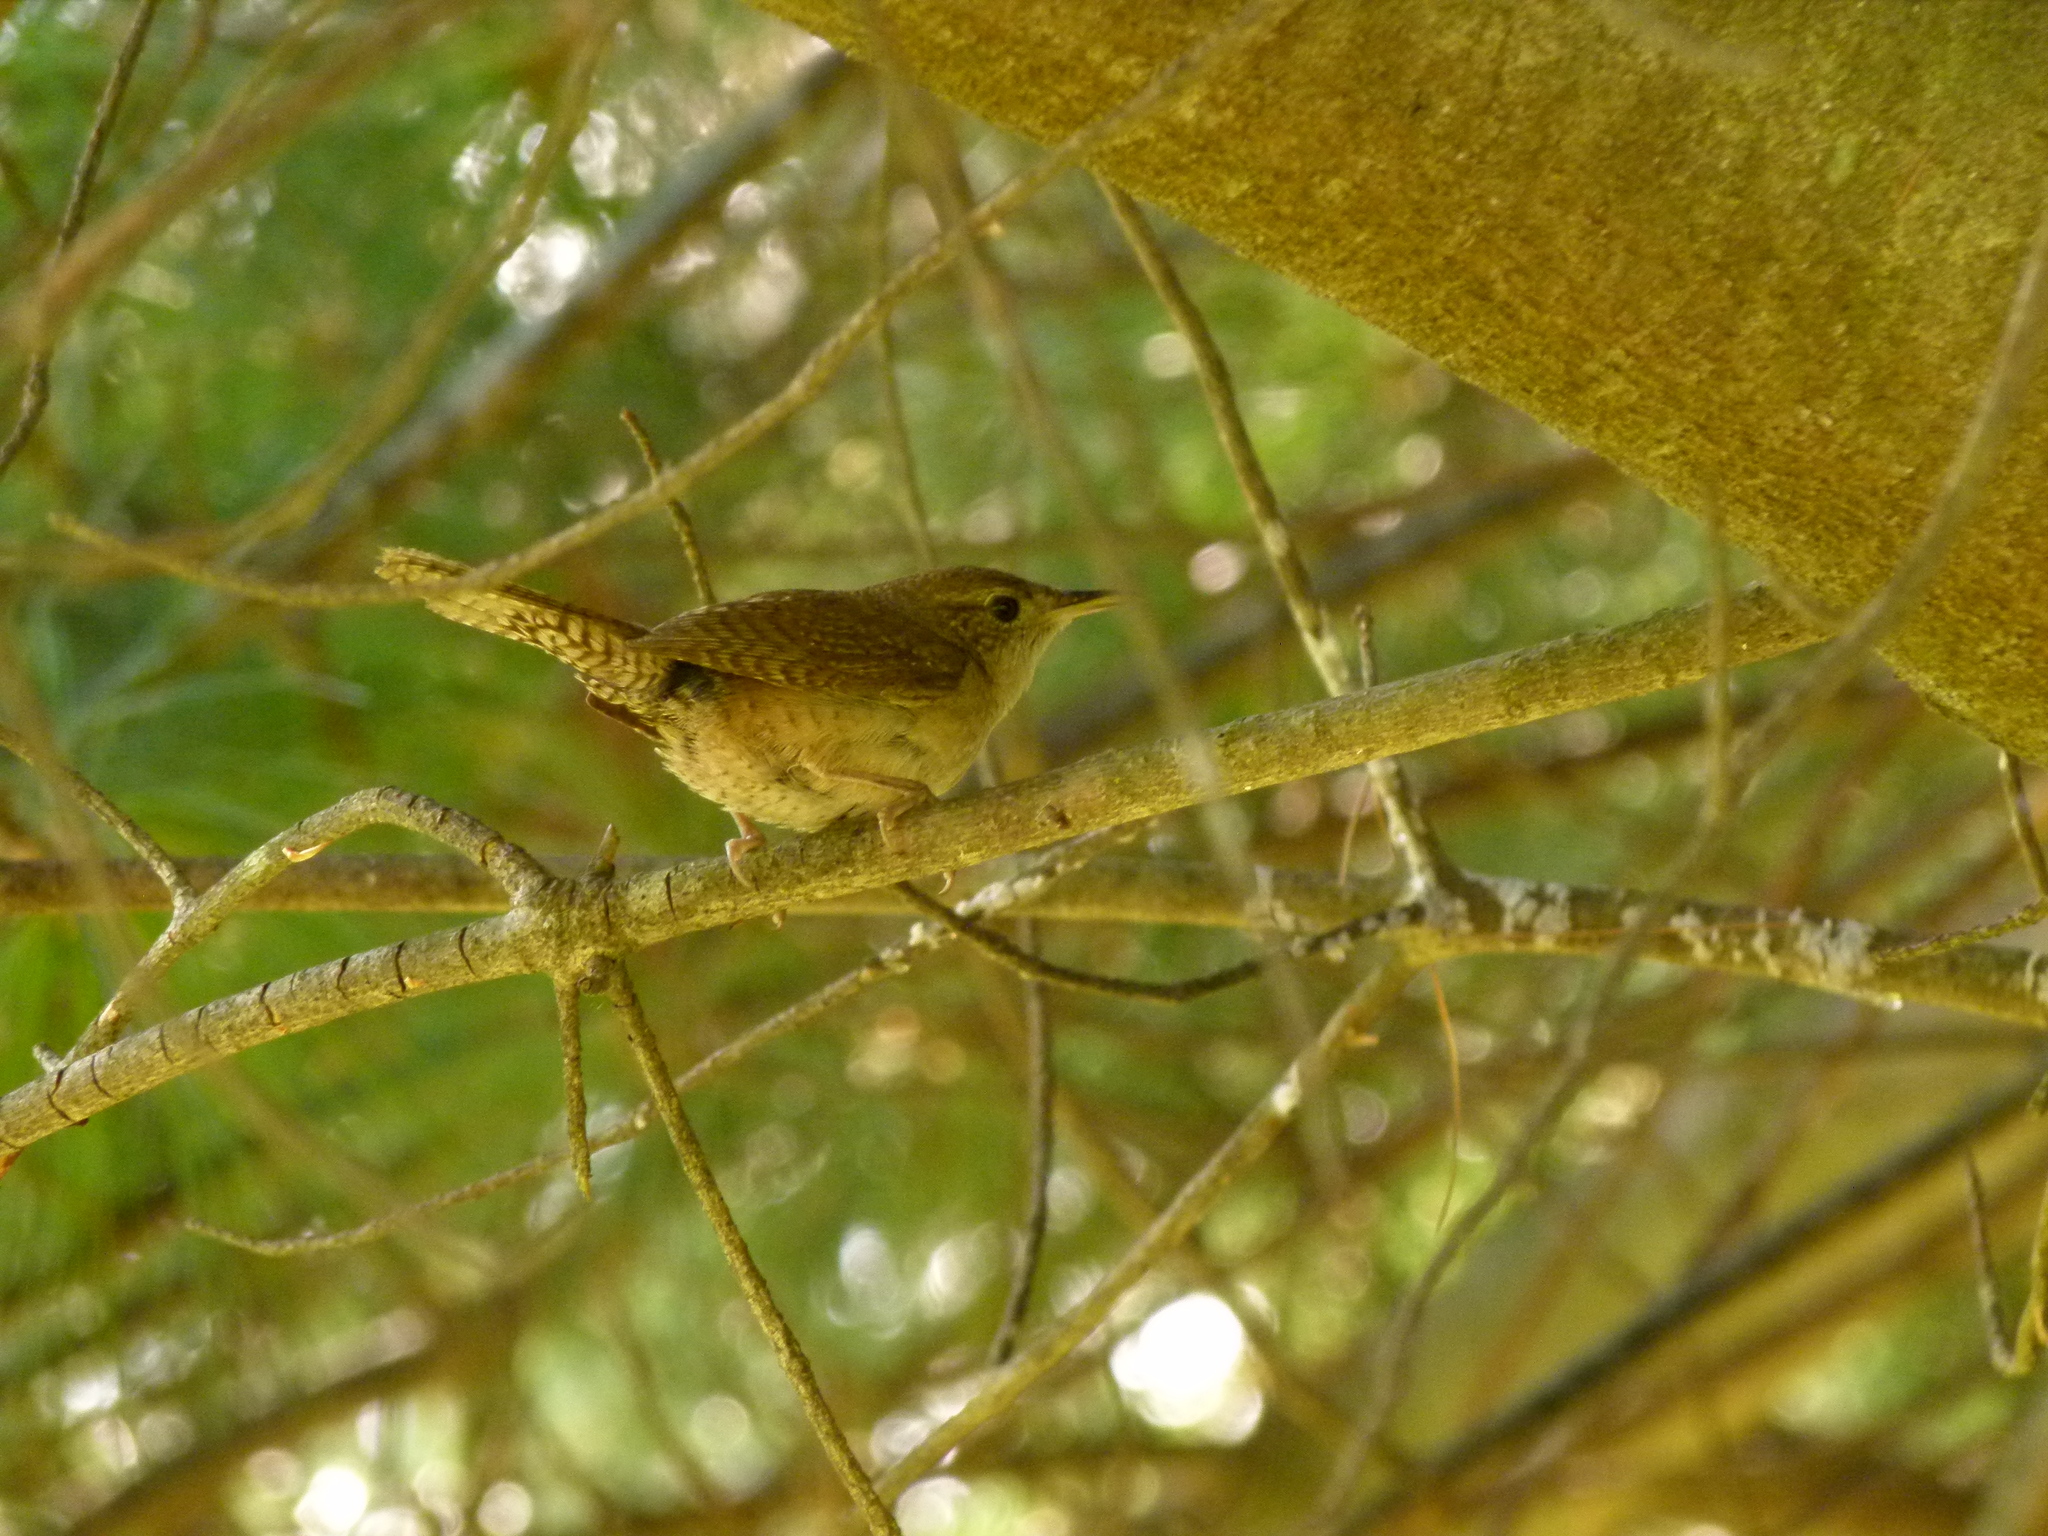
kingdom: Animalia
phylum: Chordata
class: Aves
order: Passeriformes
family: Troglodytidae
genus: Troglodytes
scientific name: Troglodytes aedon
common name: House wren
